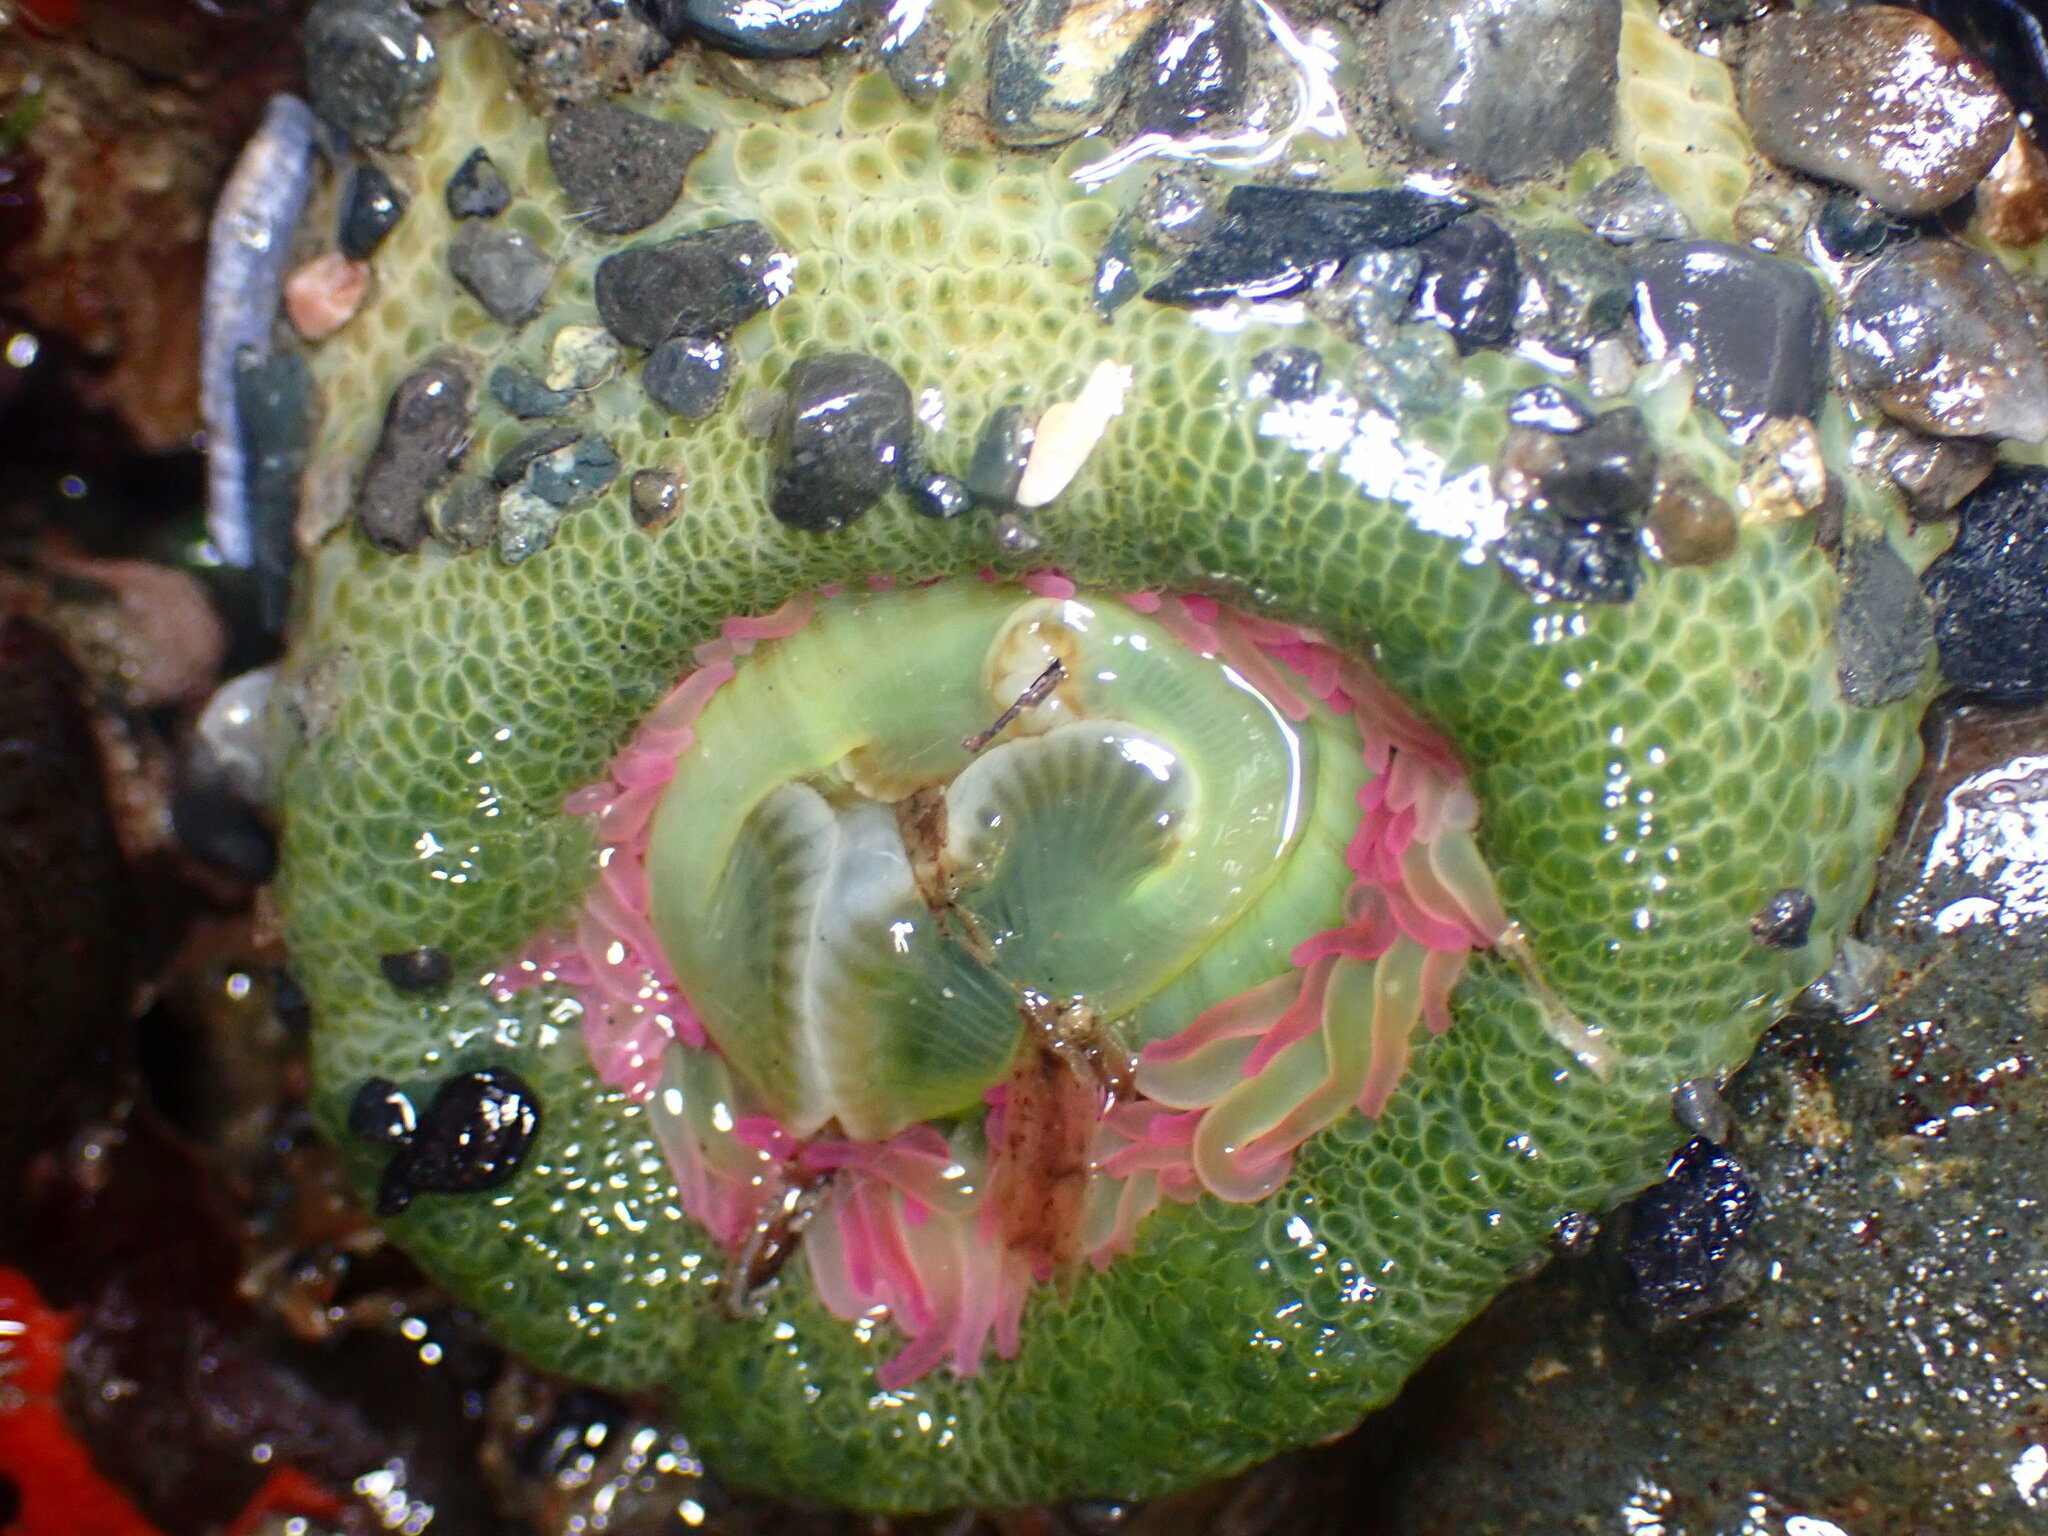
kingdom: Animalia
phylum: Cnidaria
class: Anthozoa
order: Actiniaria
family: Actiniidae
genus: Anthopleura
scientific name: Anthopleura elegantissima
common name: Clonal anemone
